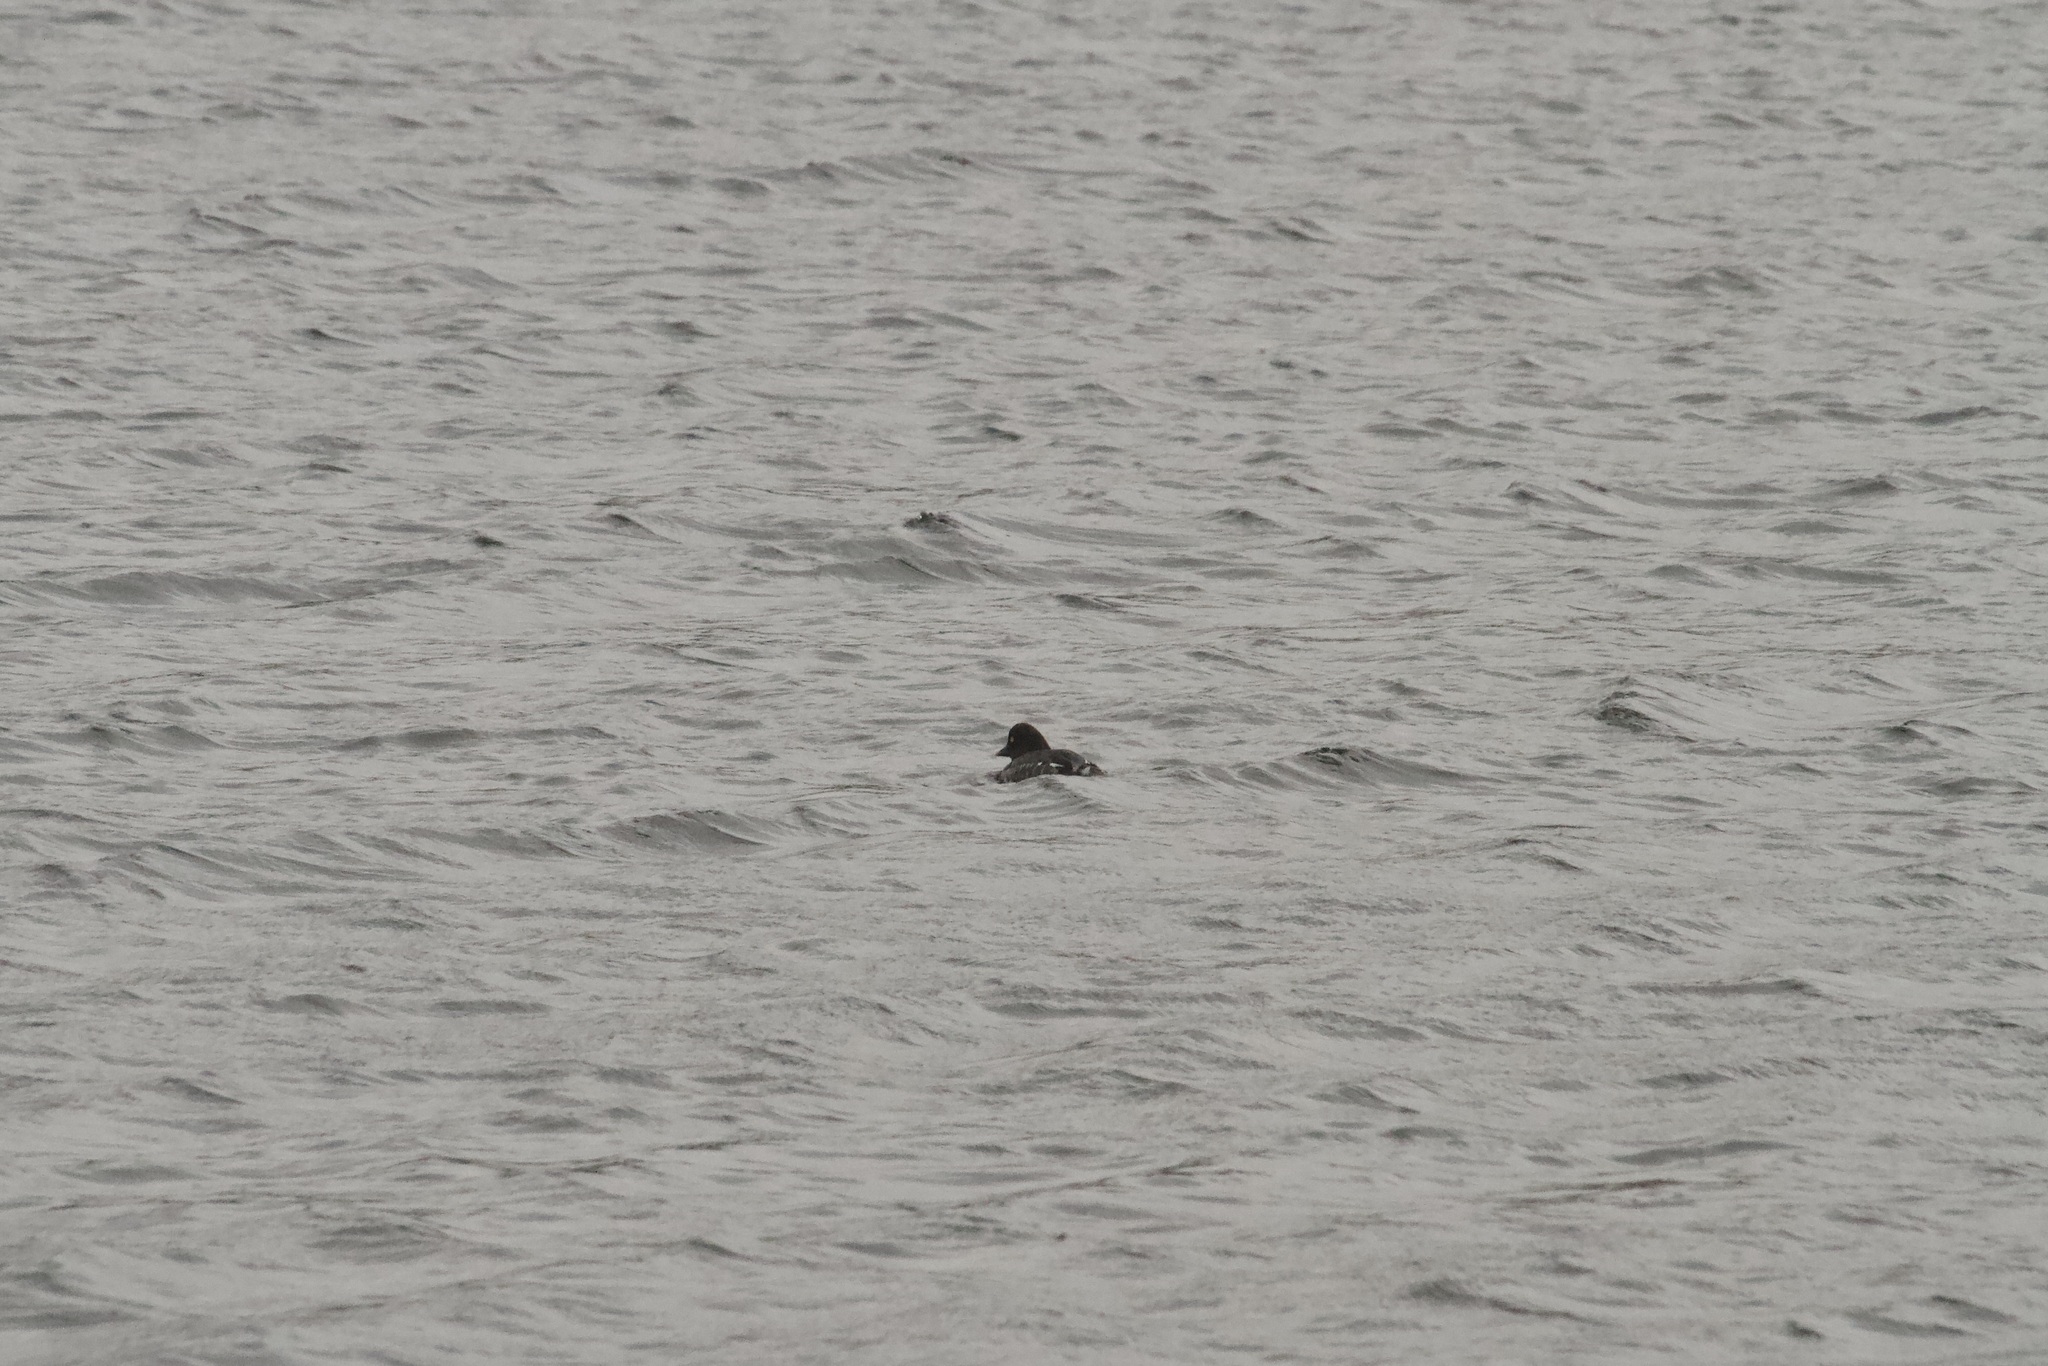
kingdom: Animalia
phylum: Chordata
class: Aves
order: Anseriformes
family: Anatidae
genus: Bucephala
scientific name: Bucephala clangula
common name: Common goldeneye
